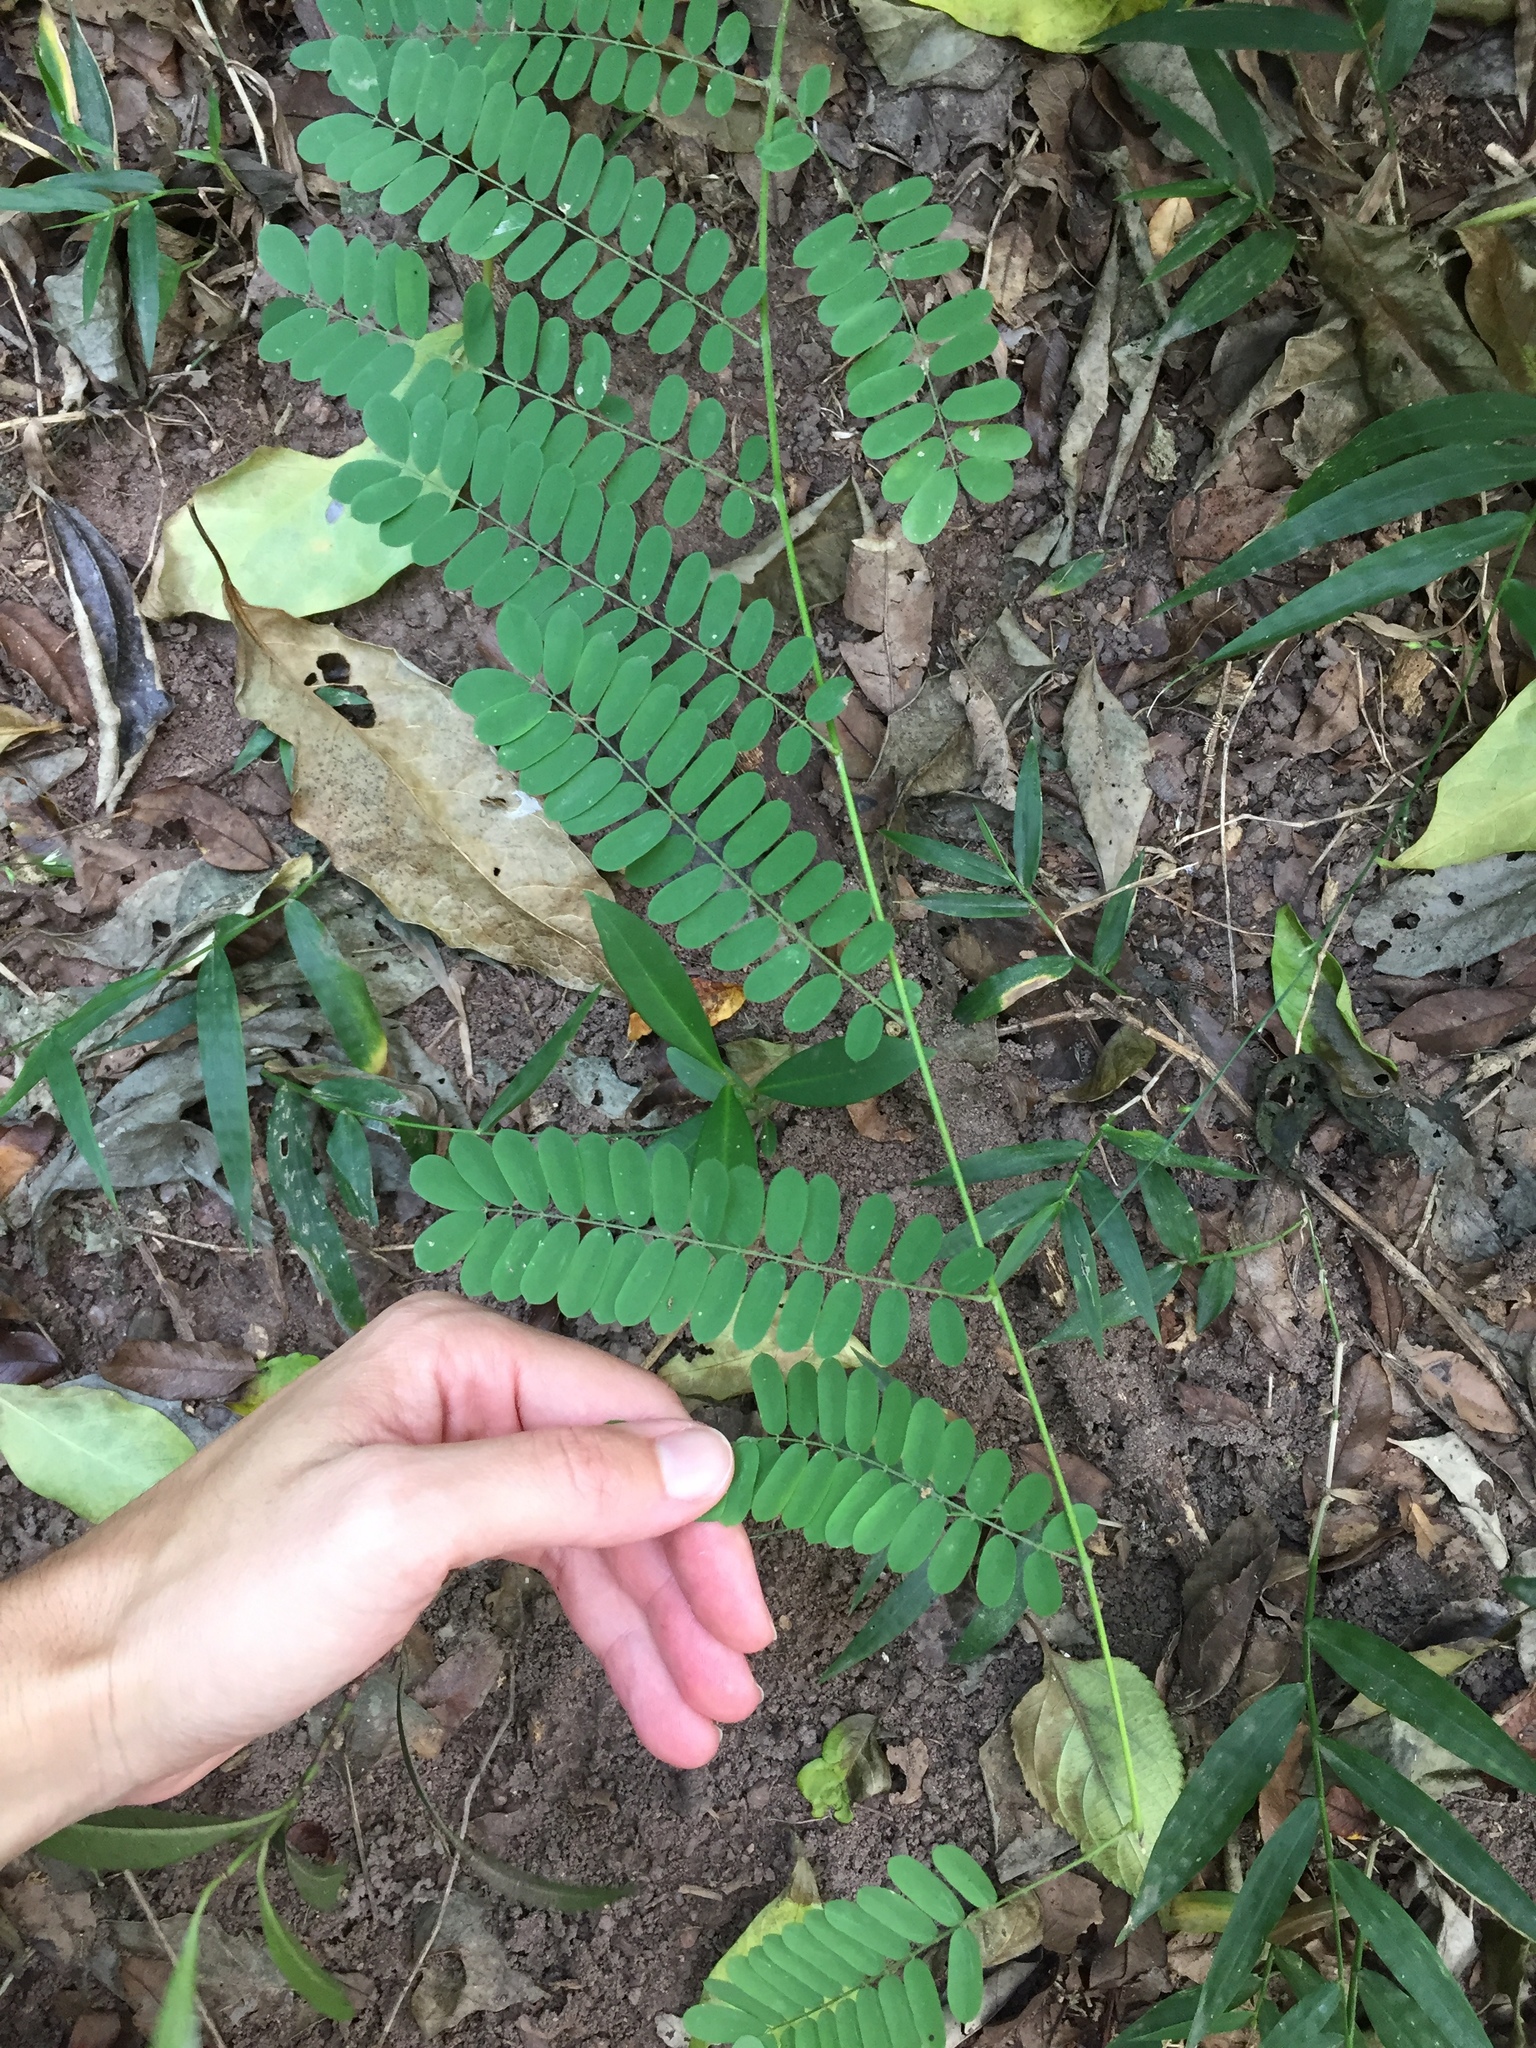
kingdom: Plantae
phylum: Tracheophyta
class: Magnoliopsida
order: Fabales
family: Fabaceae
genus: Dalbergia
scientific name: Dalbergia armata
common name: Hluhluwe climber
